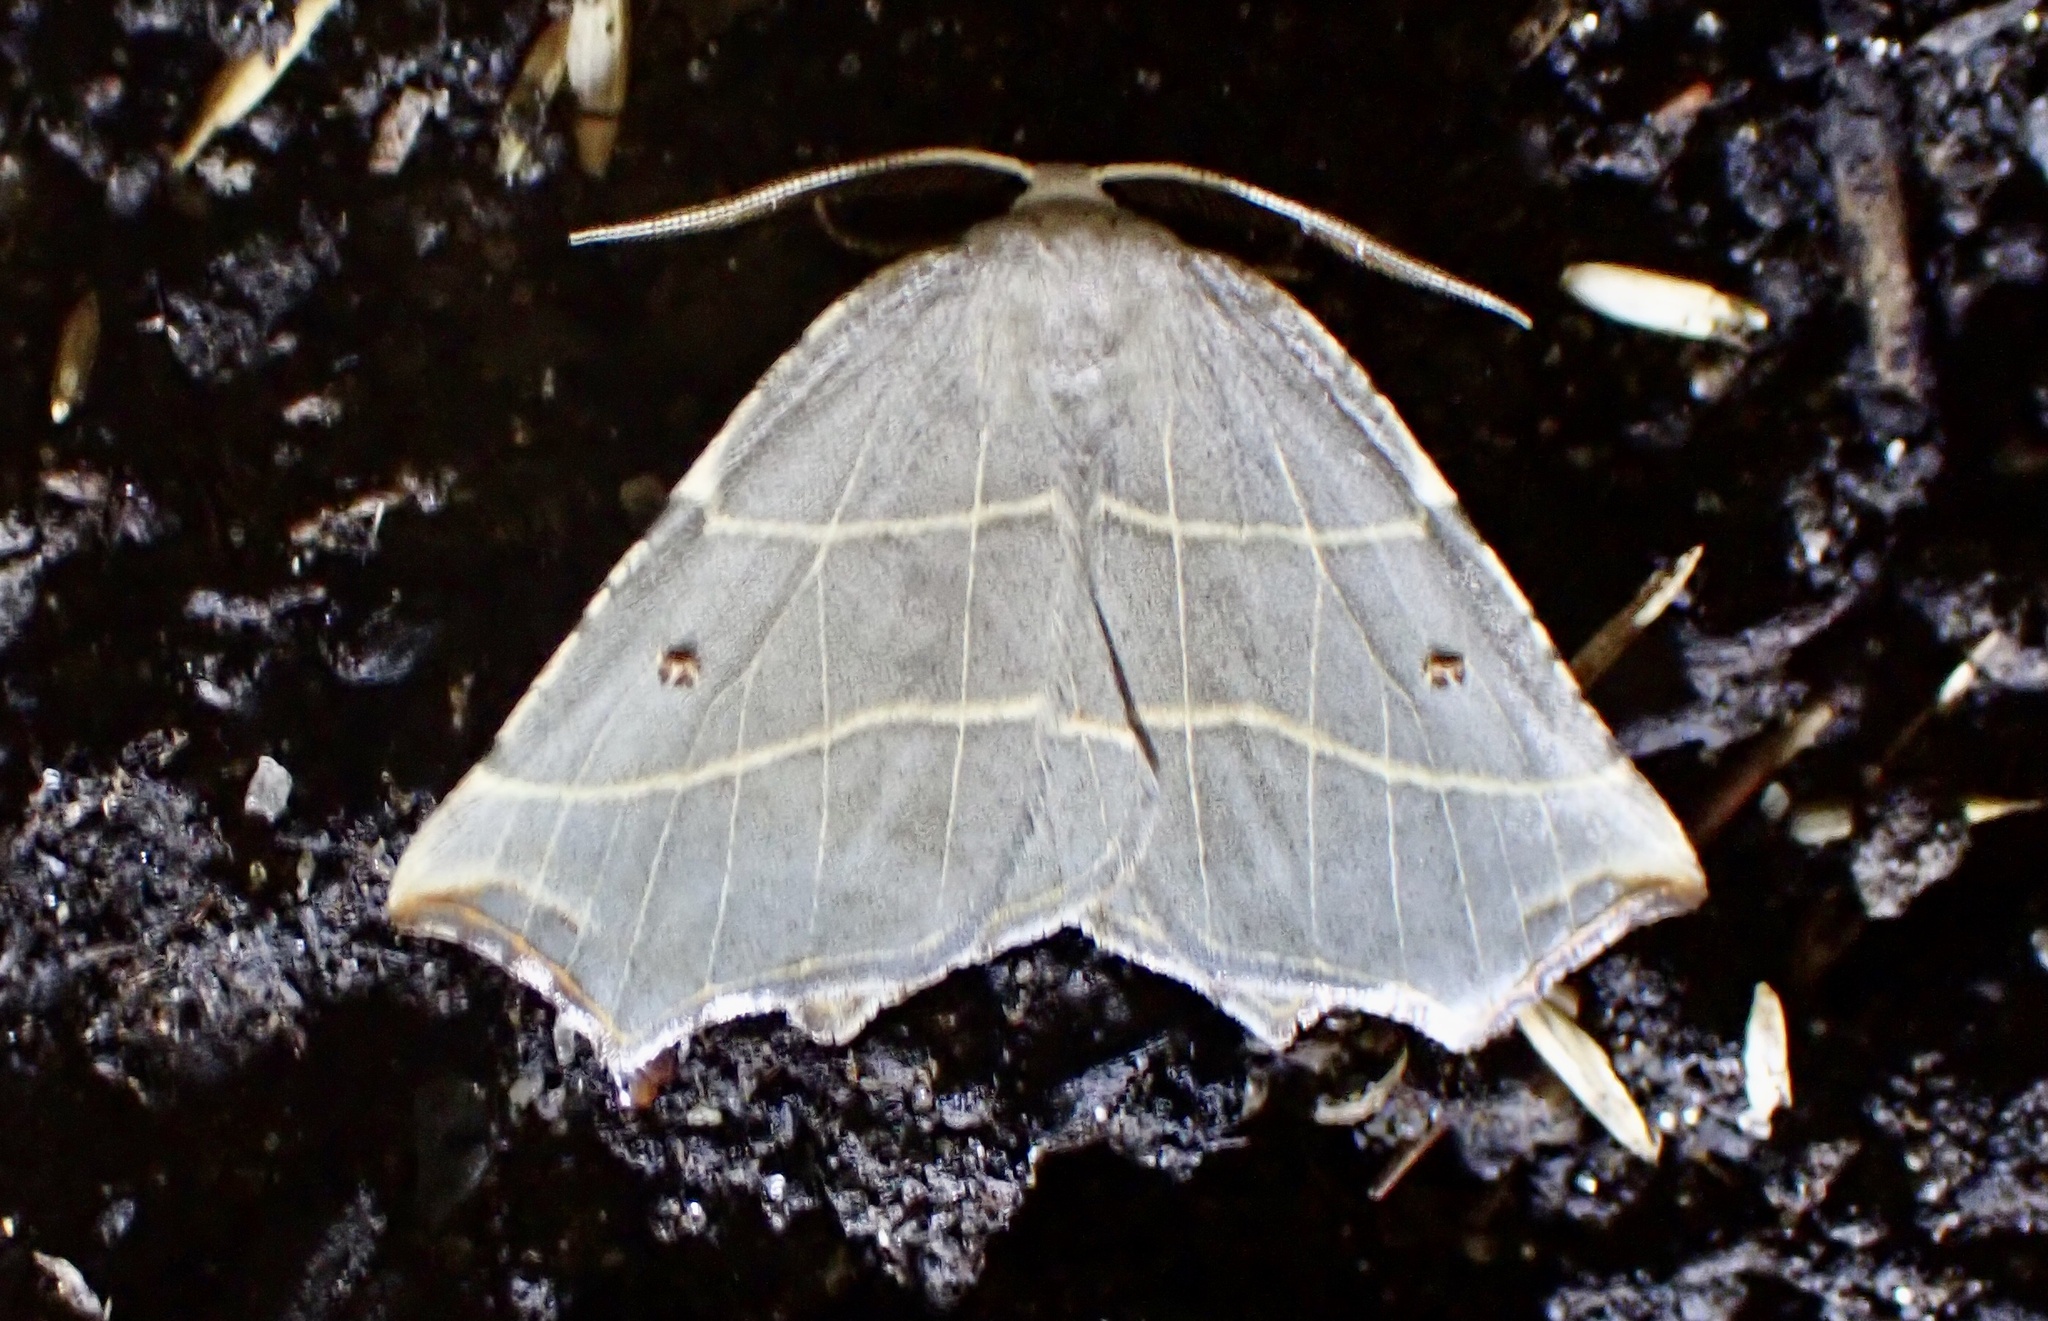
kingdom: Animalia
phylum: Arthropoda
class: Insecta
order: Lepidoptera
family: Geometridae
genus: Metanema
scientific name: Metanema inatomaria
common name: Pale metanema
